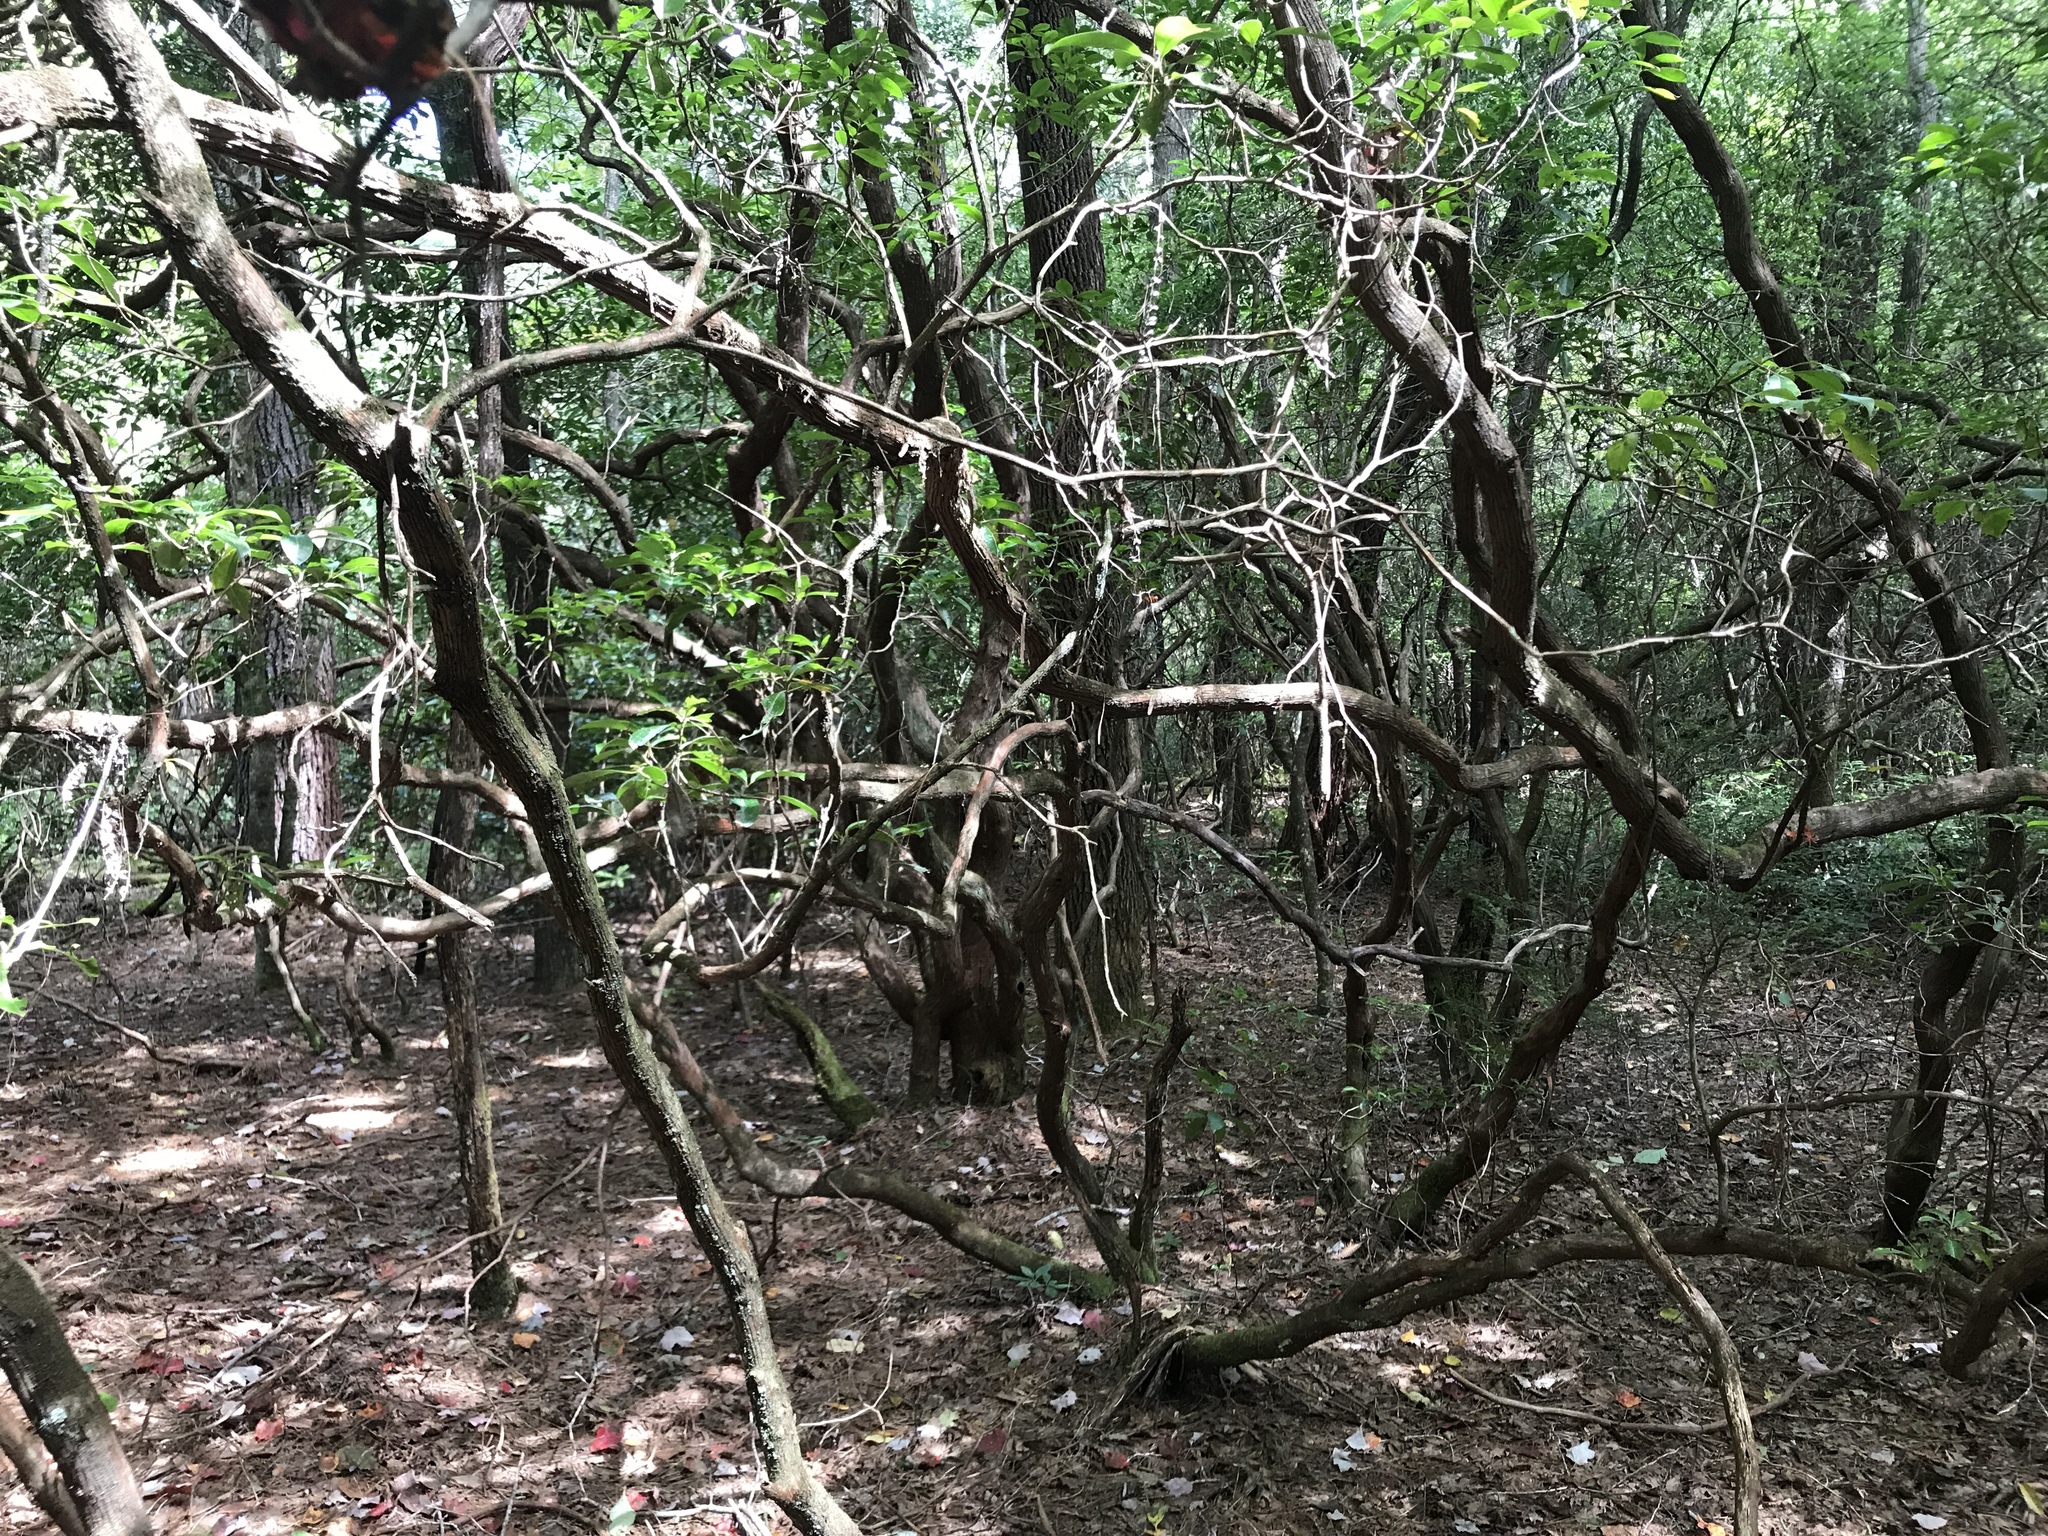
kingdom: Plantae
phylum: Tracheophyta
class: Magnoliopsida
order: Ericales
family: Ericaceae
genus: Kalmia
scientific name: Kalmia latifolia
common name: Mountain-laurel
